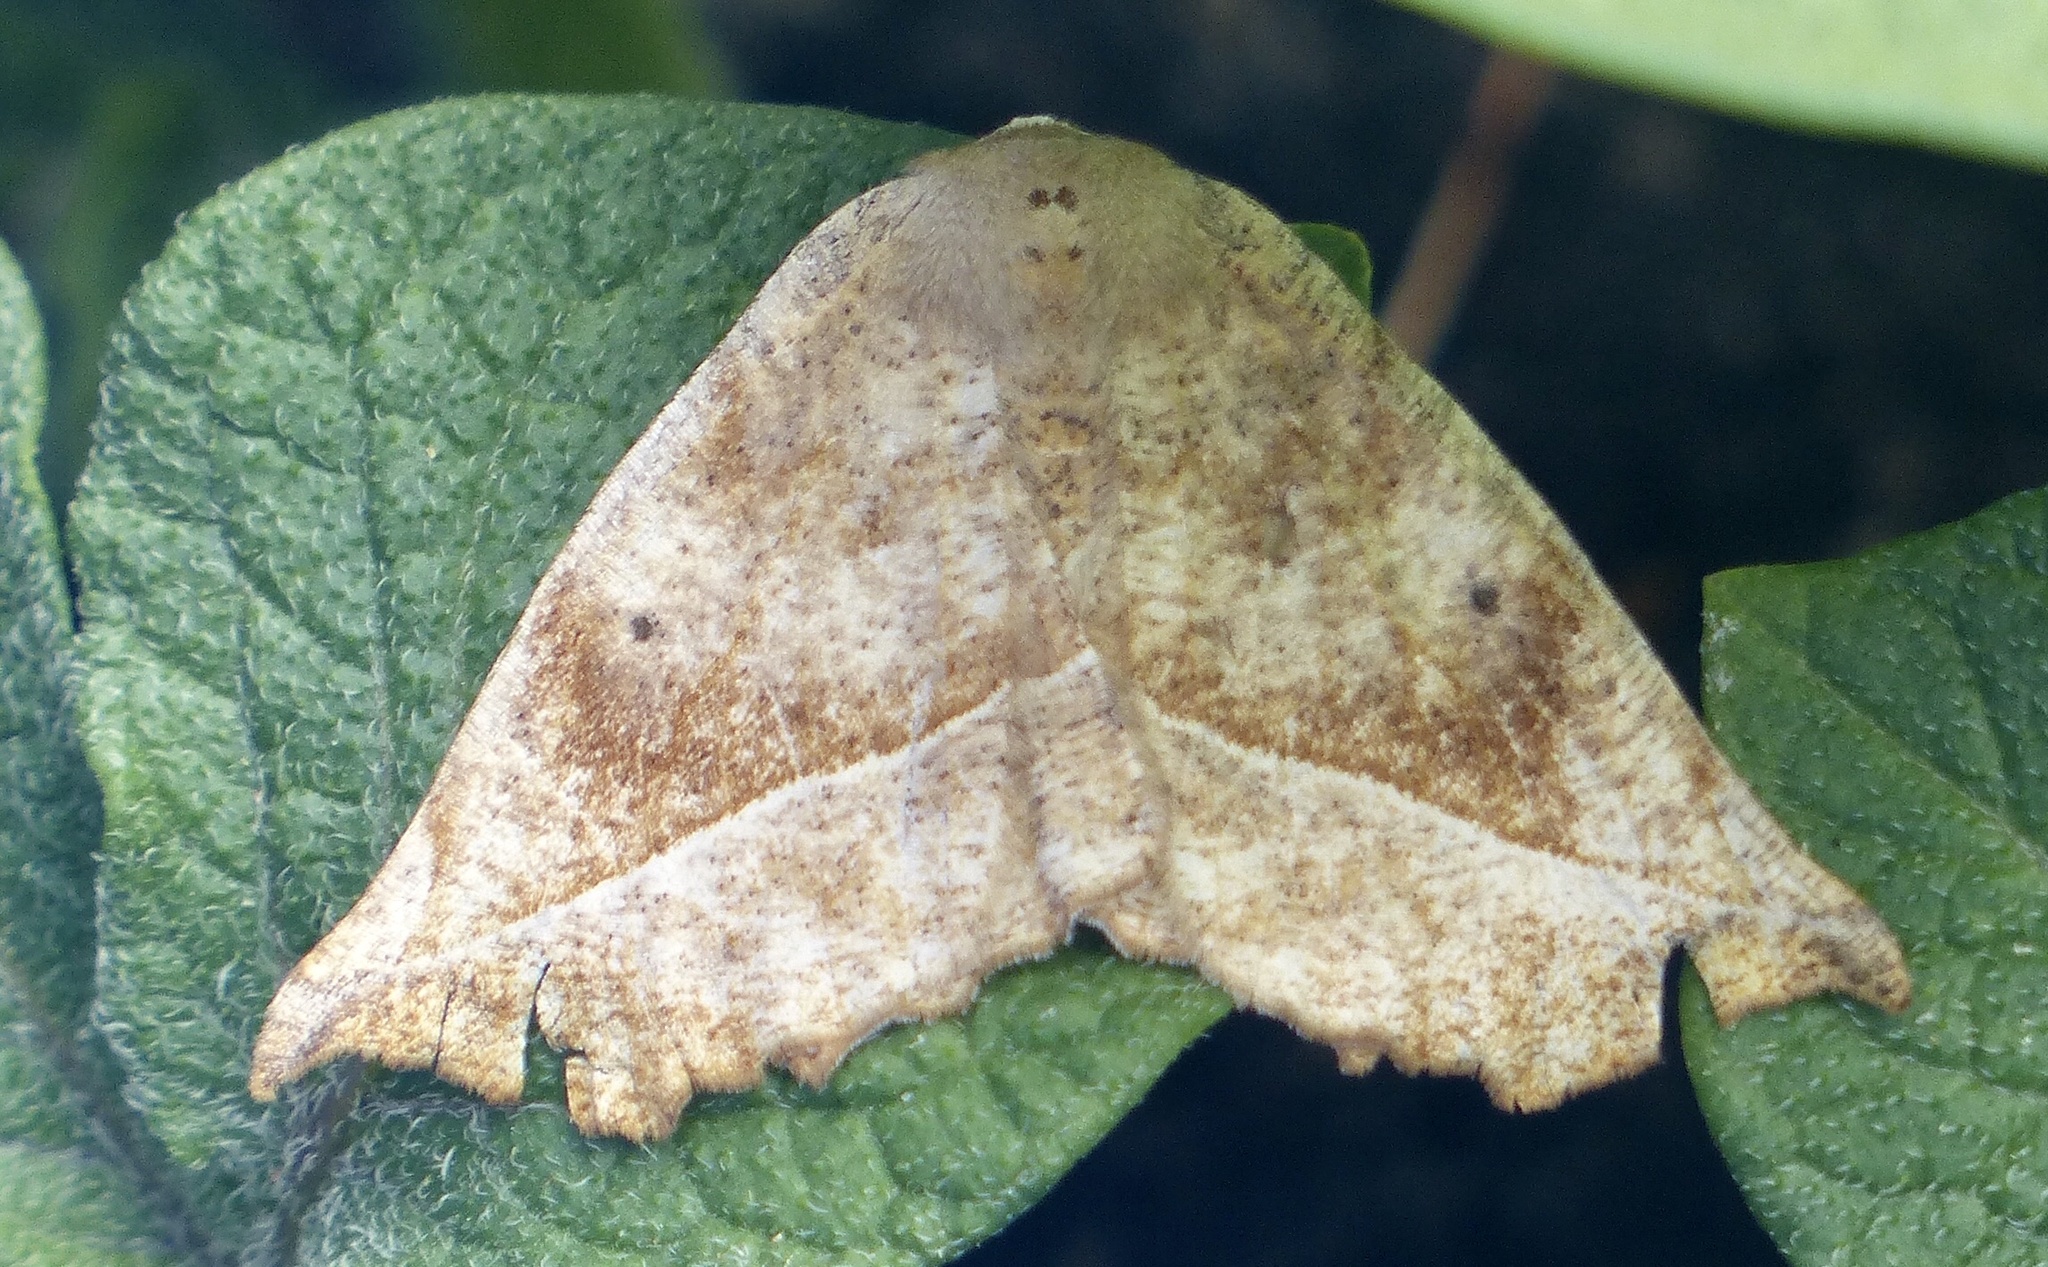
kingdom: Animalia
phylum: Arthropoda
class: Insecta
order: Lepidoptera
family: Geometridae
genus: Eutrapela
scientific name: Eutrapela clemataria
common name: Curved-toothed geometer
